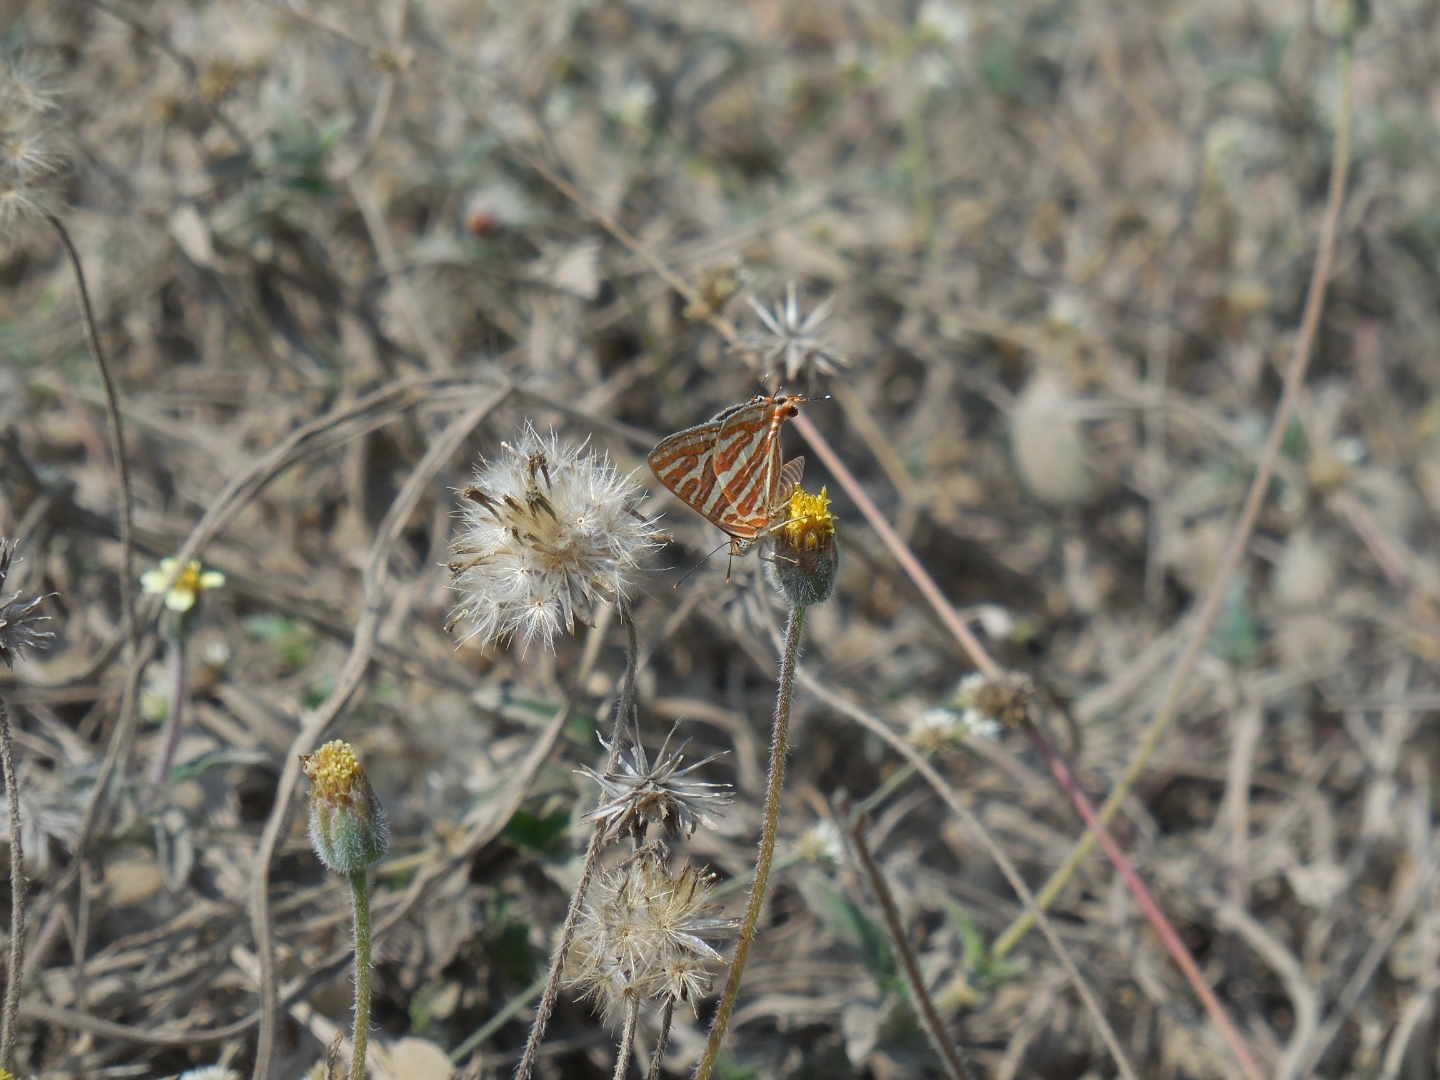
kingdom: Animalia
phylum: Arthropoda
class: Insecta
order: Lepidoptera
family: Lycaenidae
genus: Cigaritis
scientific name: Cigaritis vulcanus
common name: Common silverline
